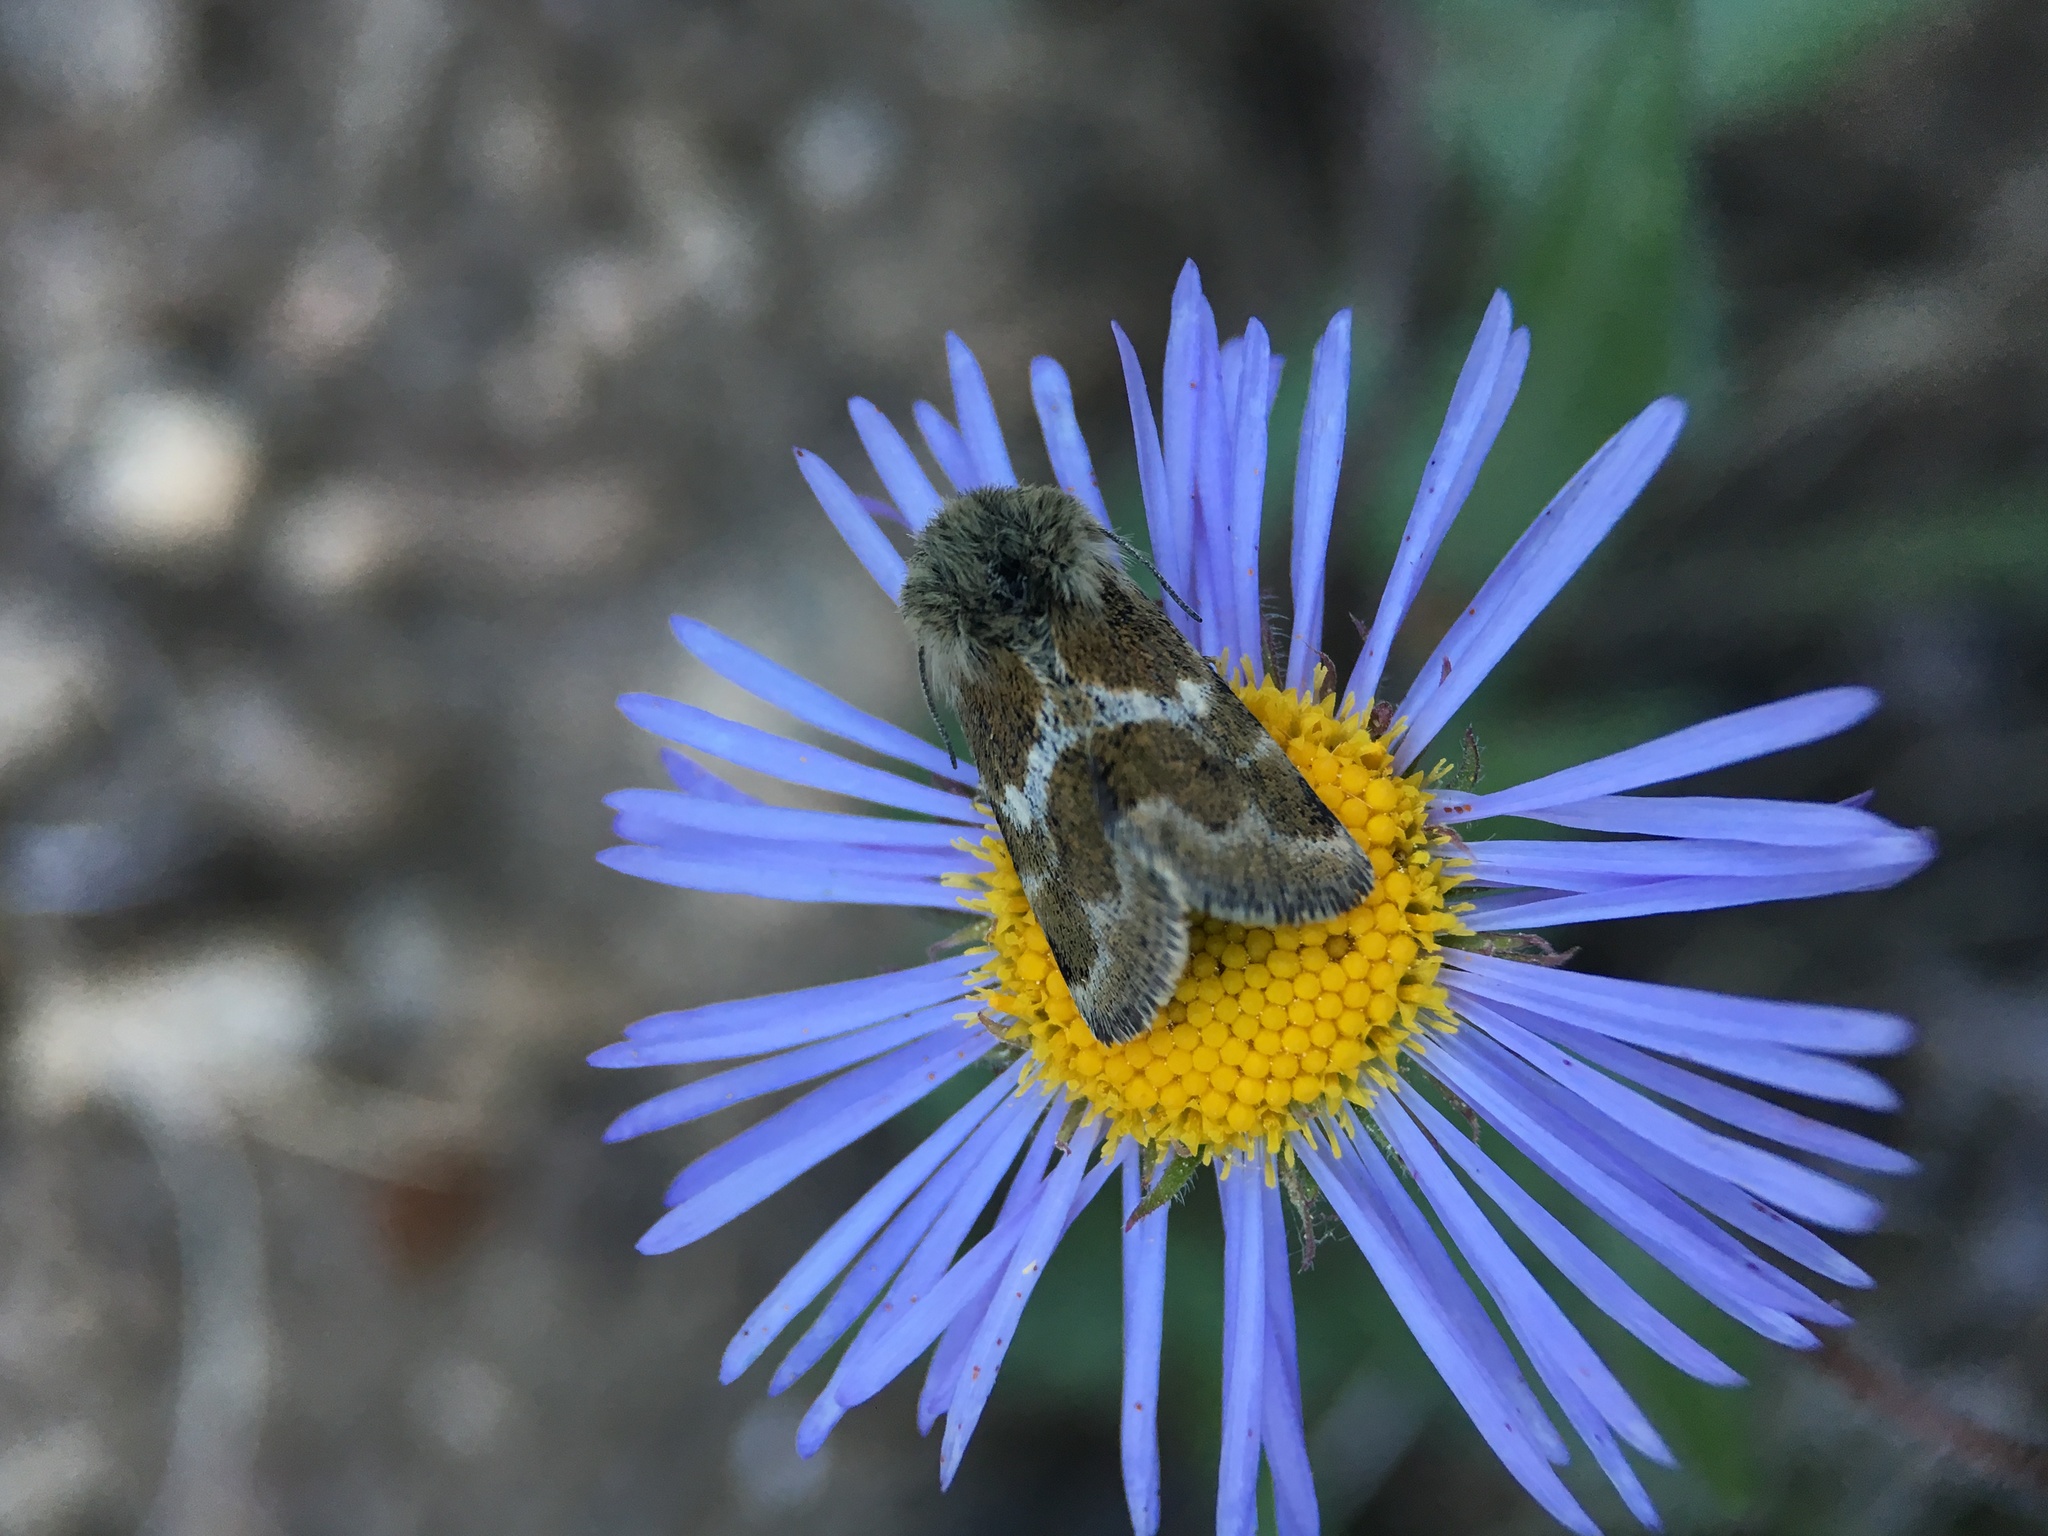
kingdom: Animalia
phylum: Arthropoda
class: Insecta
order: Lepidoptera
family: Noctuidae
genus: Schinia
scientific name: Schinia villosa
